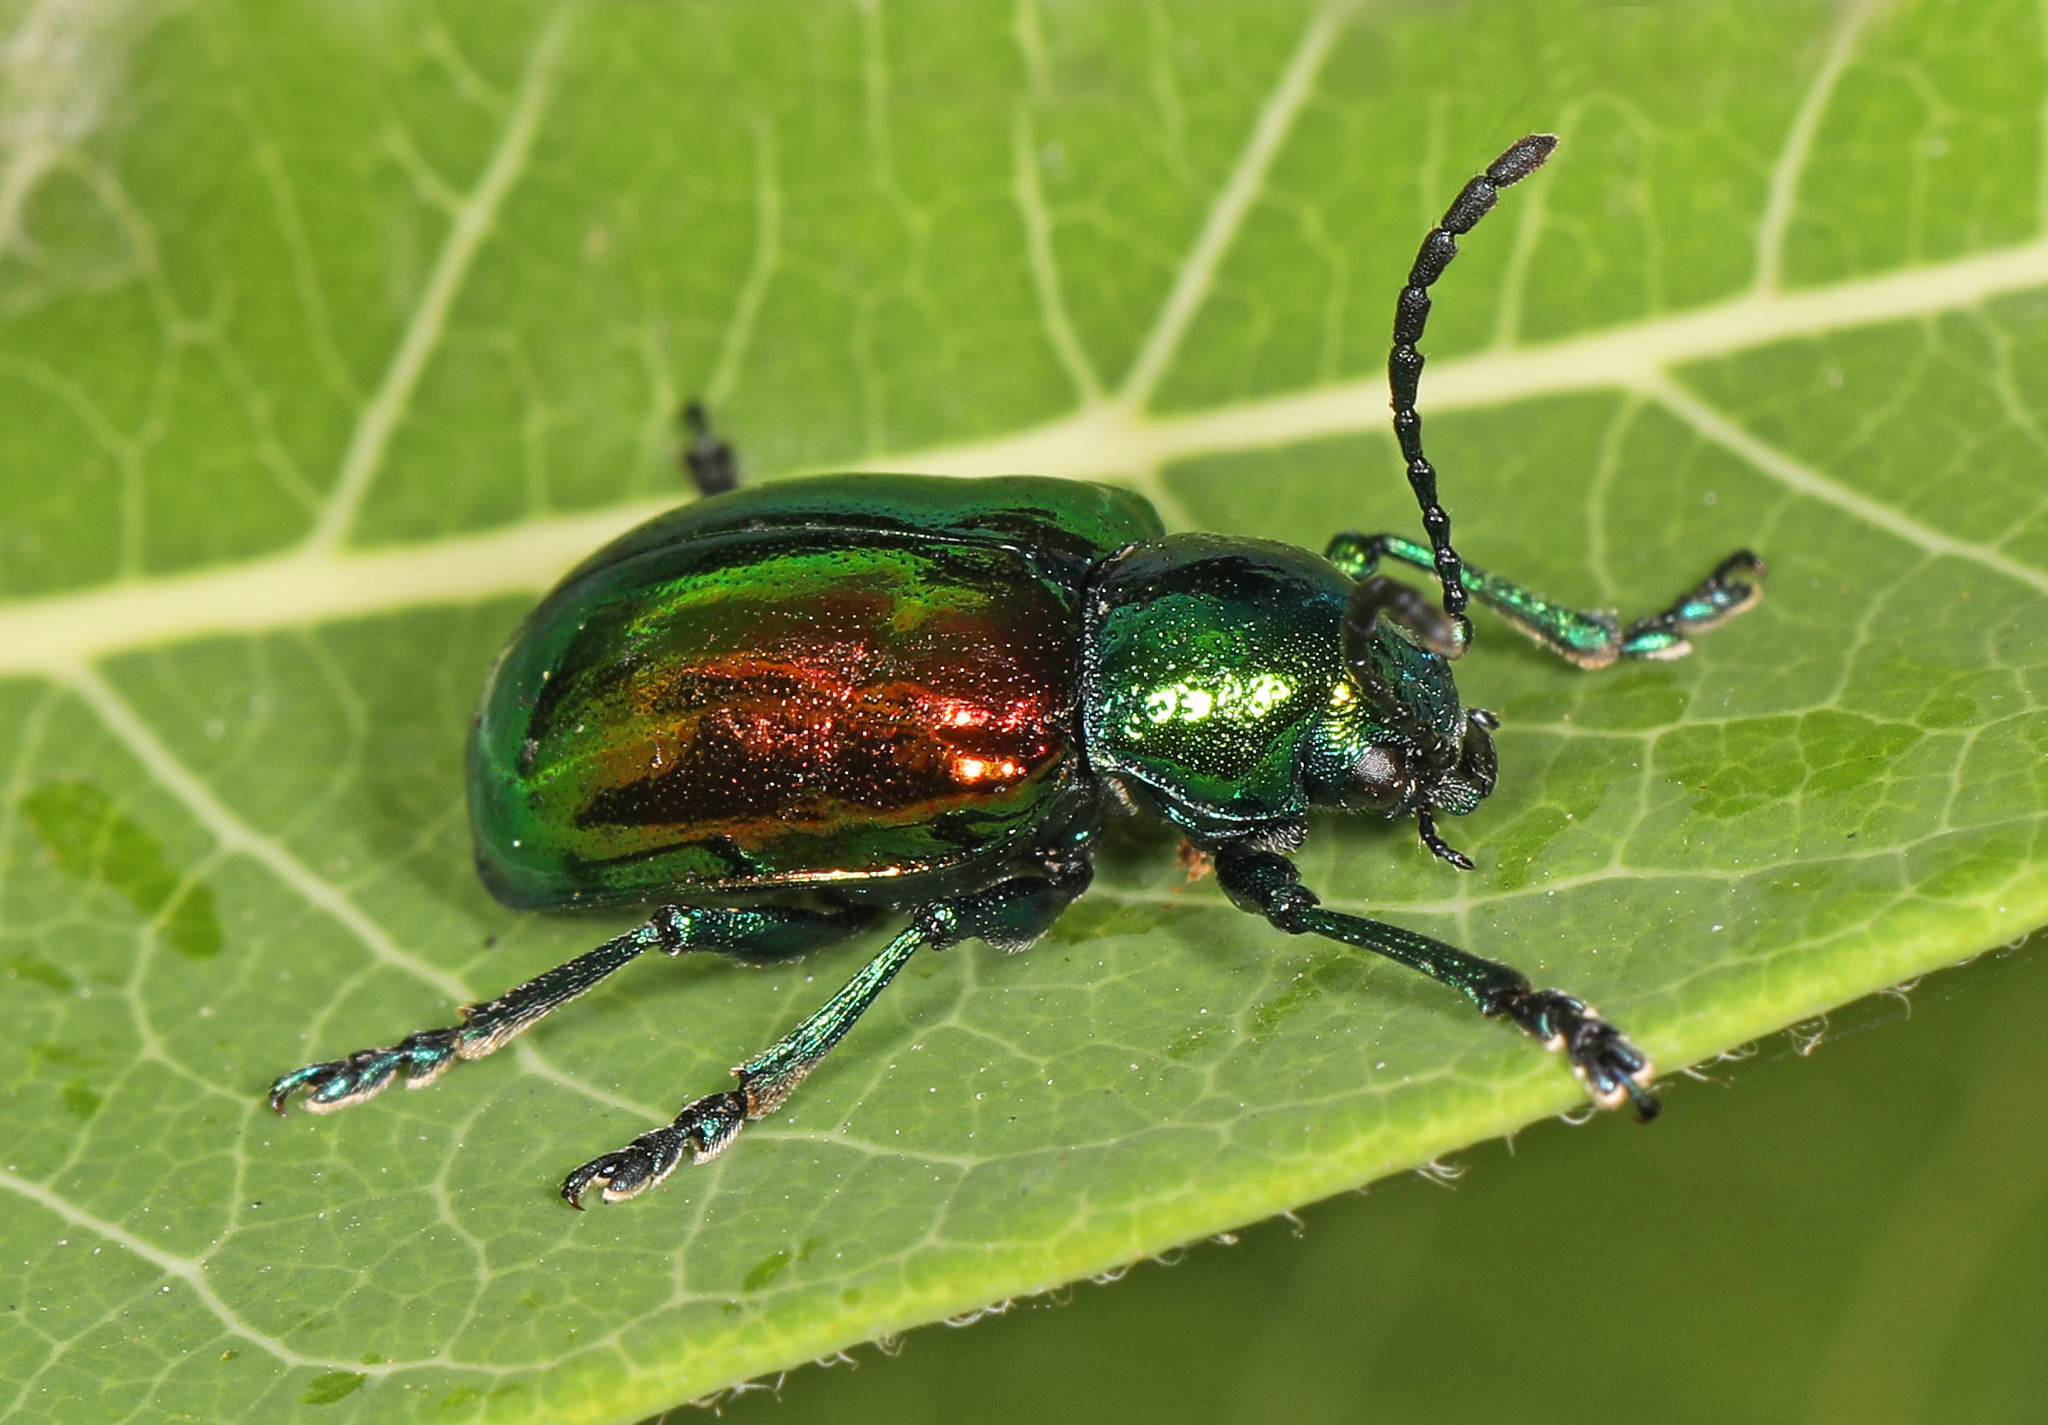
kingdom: Animalia
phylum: Arthropoda
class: Insecta
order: Coleoptera
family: Chrysomelidae
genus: Chrysochus
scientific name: Chrysochus auratus
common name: Dogbane leaf beetle
